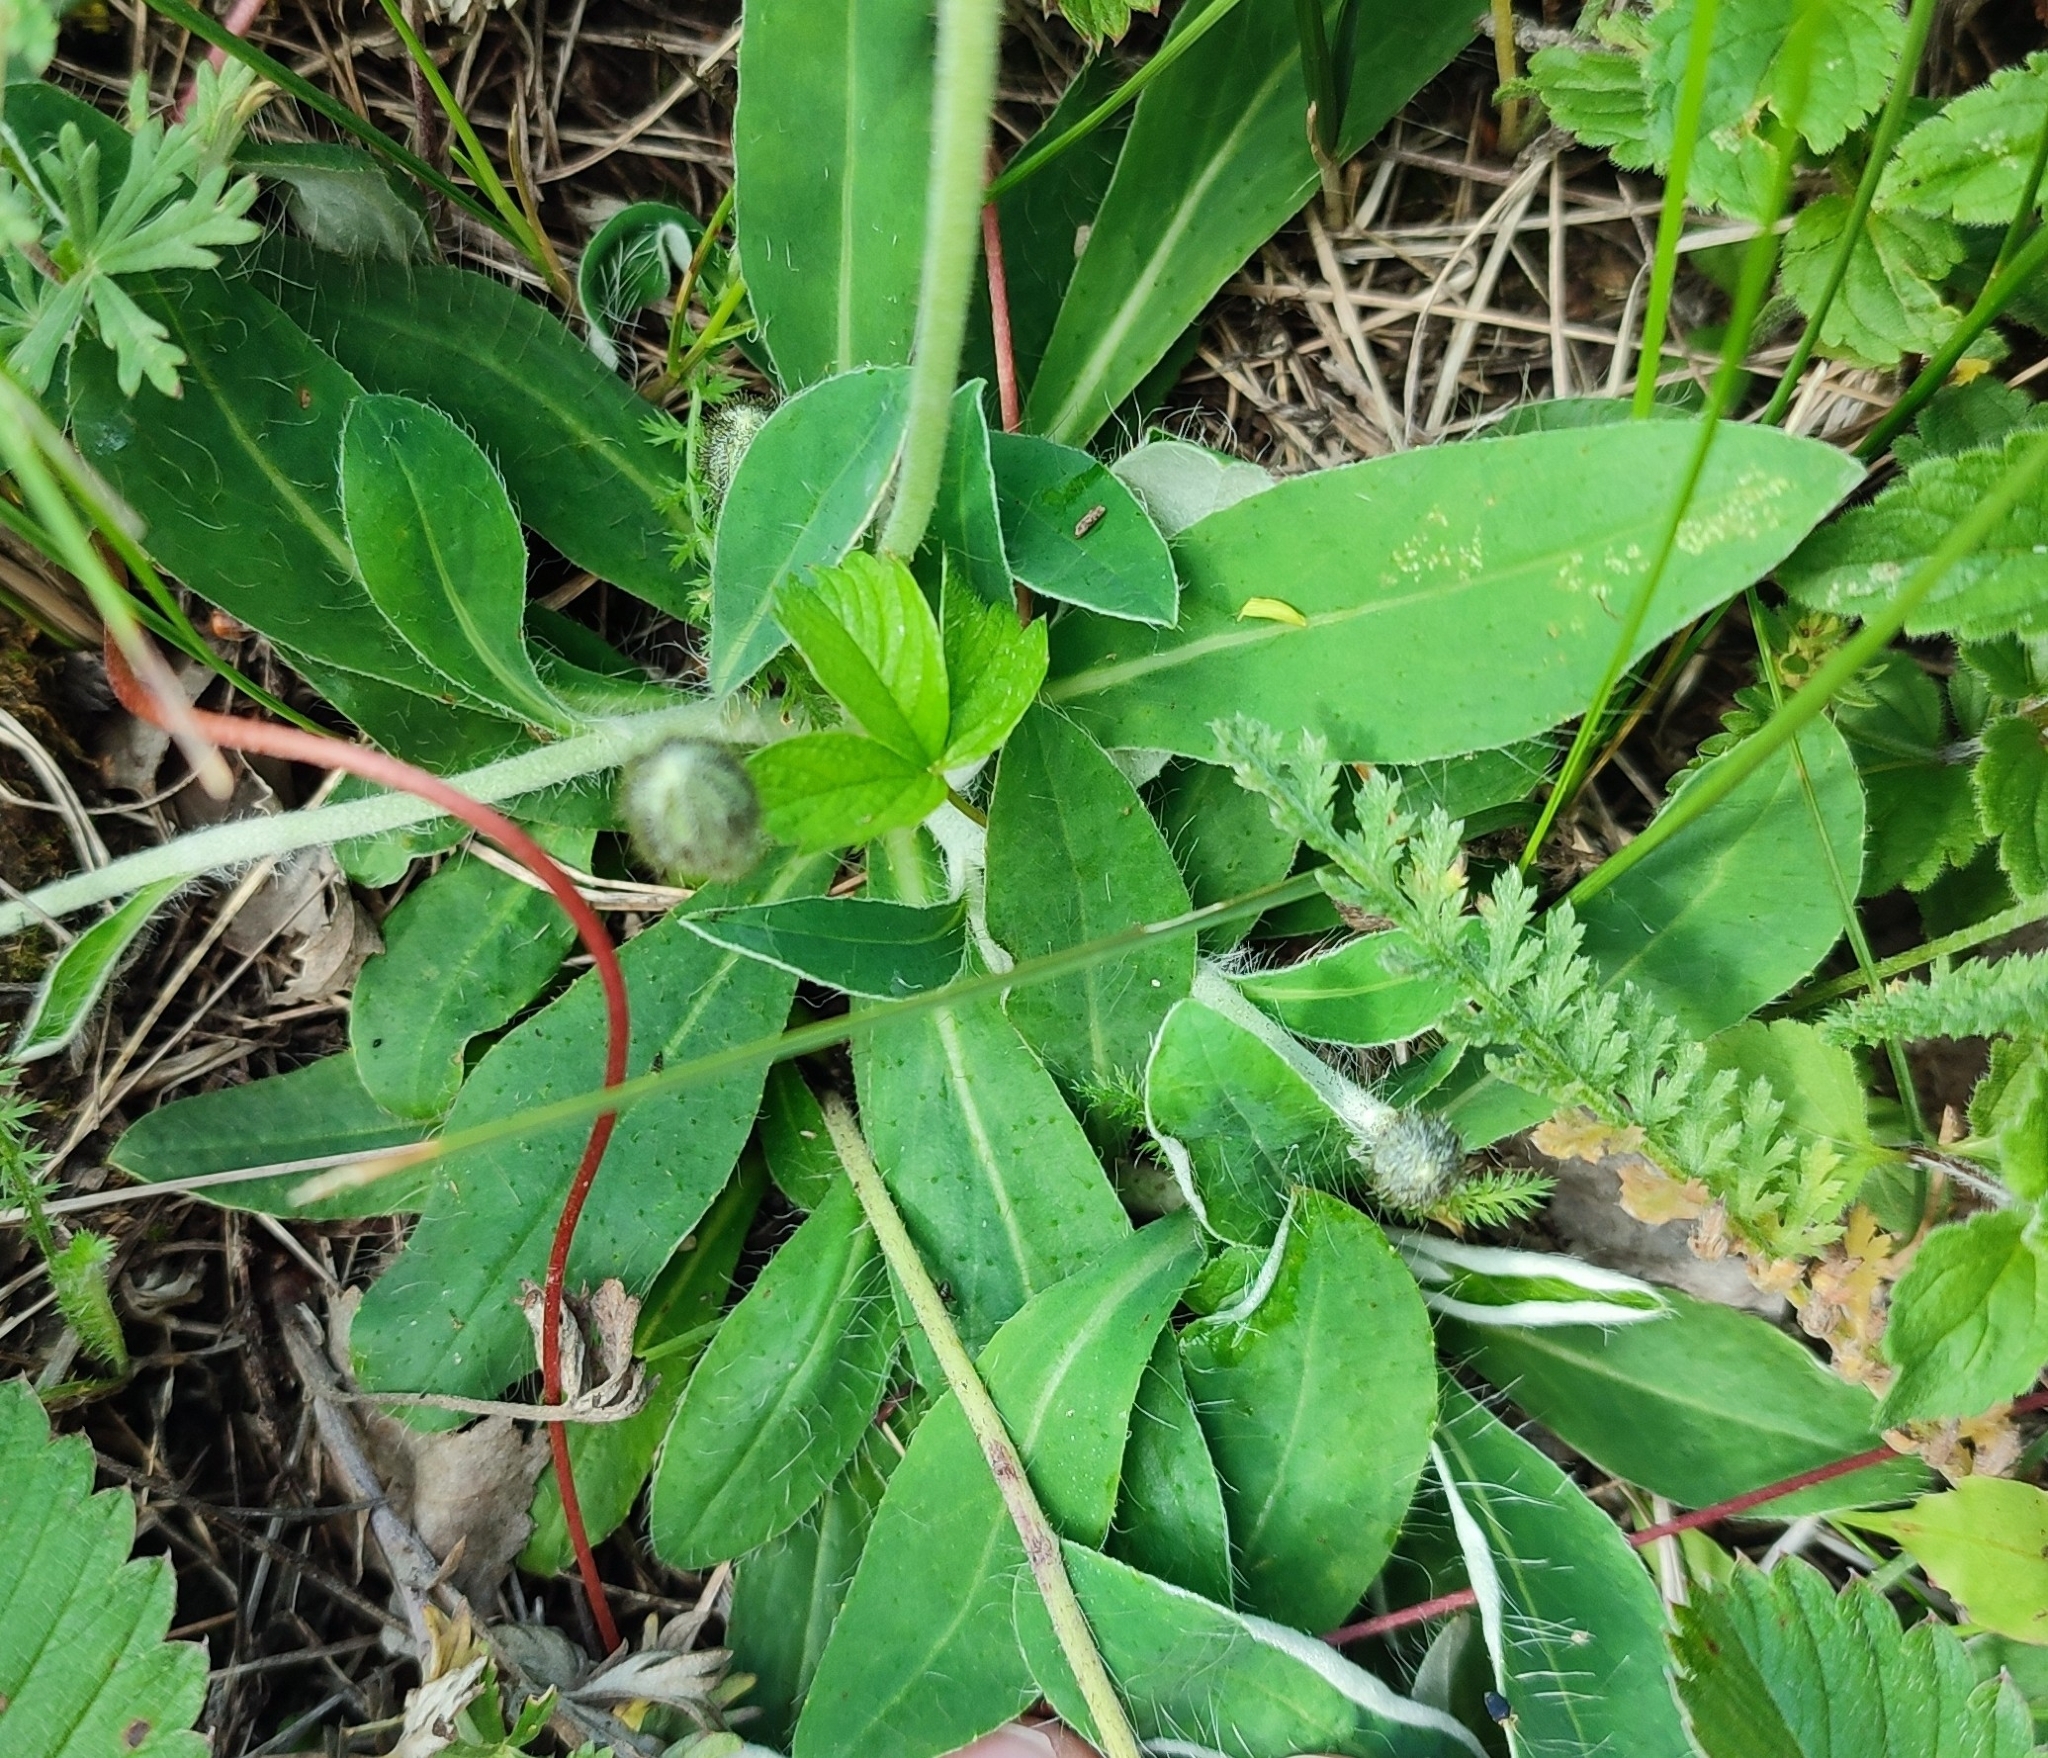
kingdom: Plantae
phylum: Tracheophyta
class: Magnoliopsida
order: Asterales
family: Asteraceae
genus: Pilosella
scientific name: Pilosella officinarum
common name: Mouse-ear hawkweed
